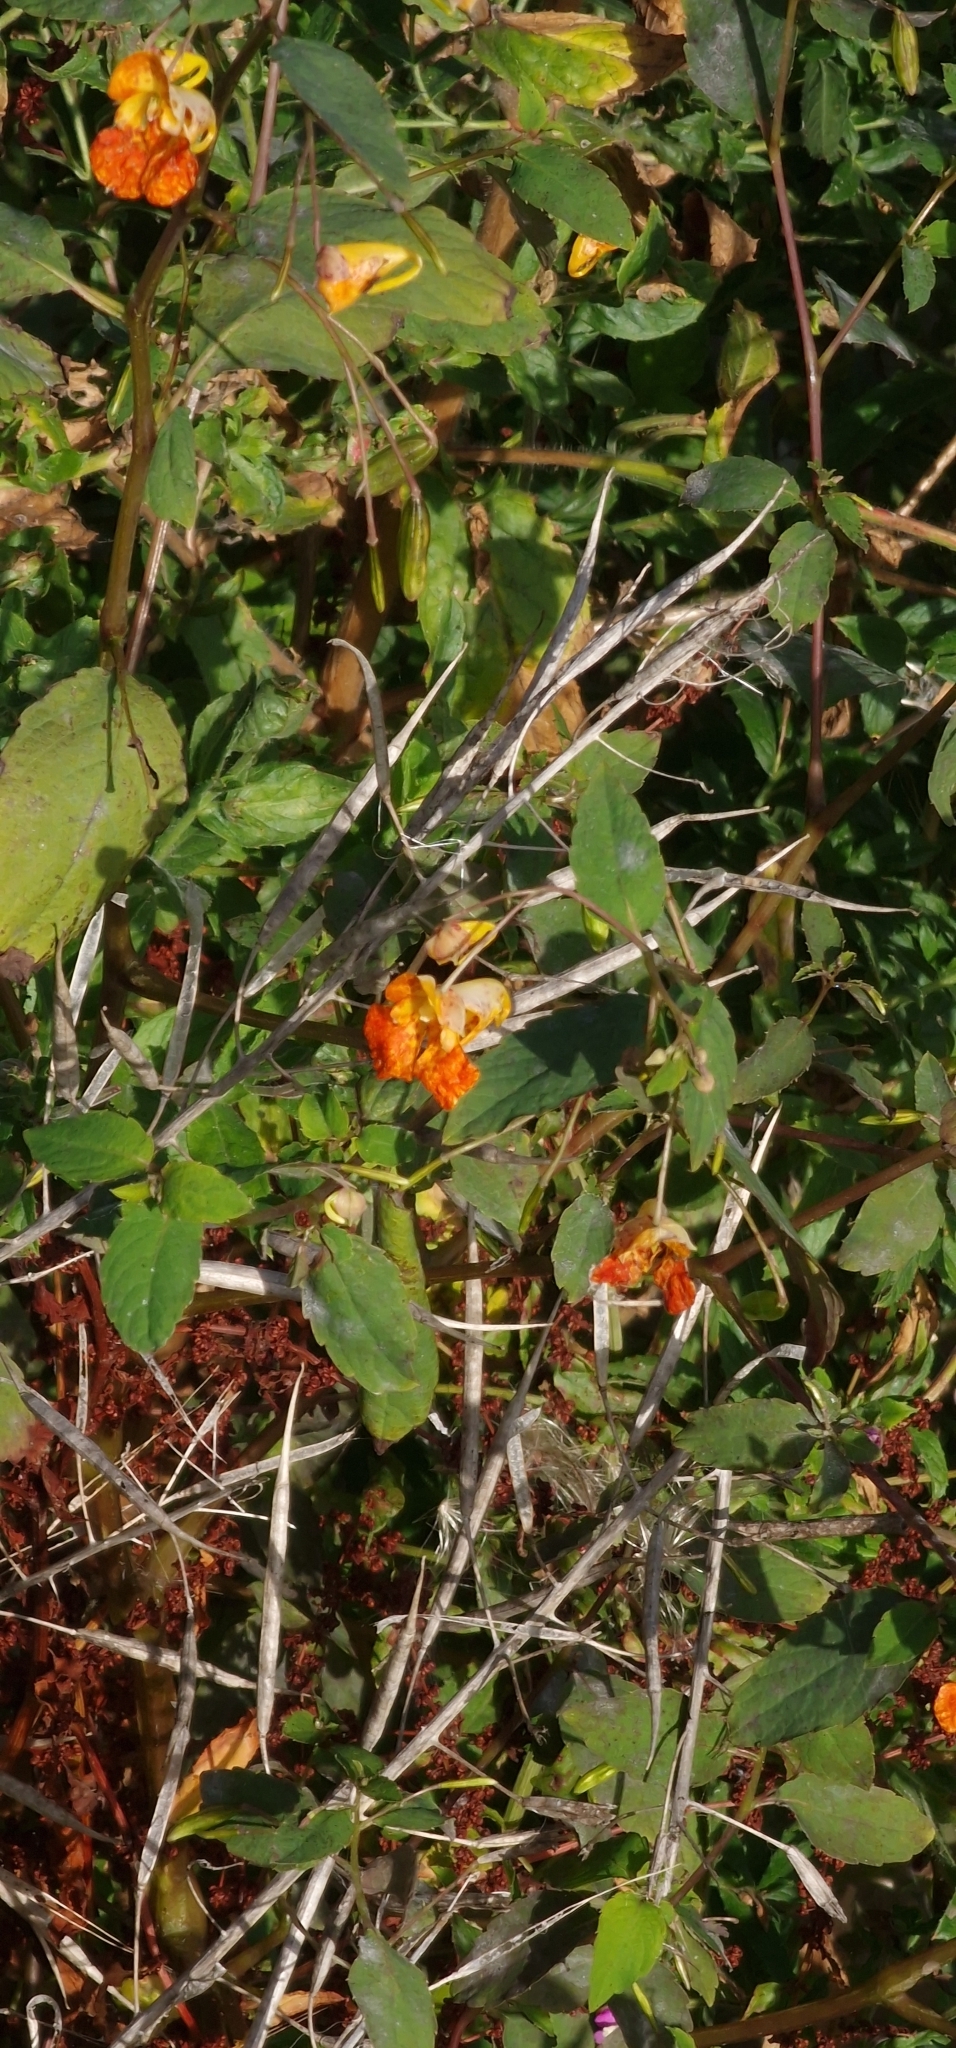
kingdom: Plantae
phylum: Tracheophyta
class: Magnoliopsida
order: Ericales
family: Balsaminaceae
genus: Impatiens
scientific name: Impatiens capensis
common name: Orange balsam
